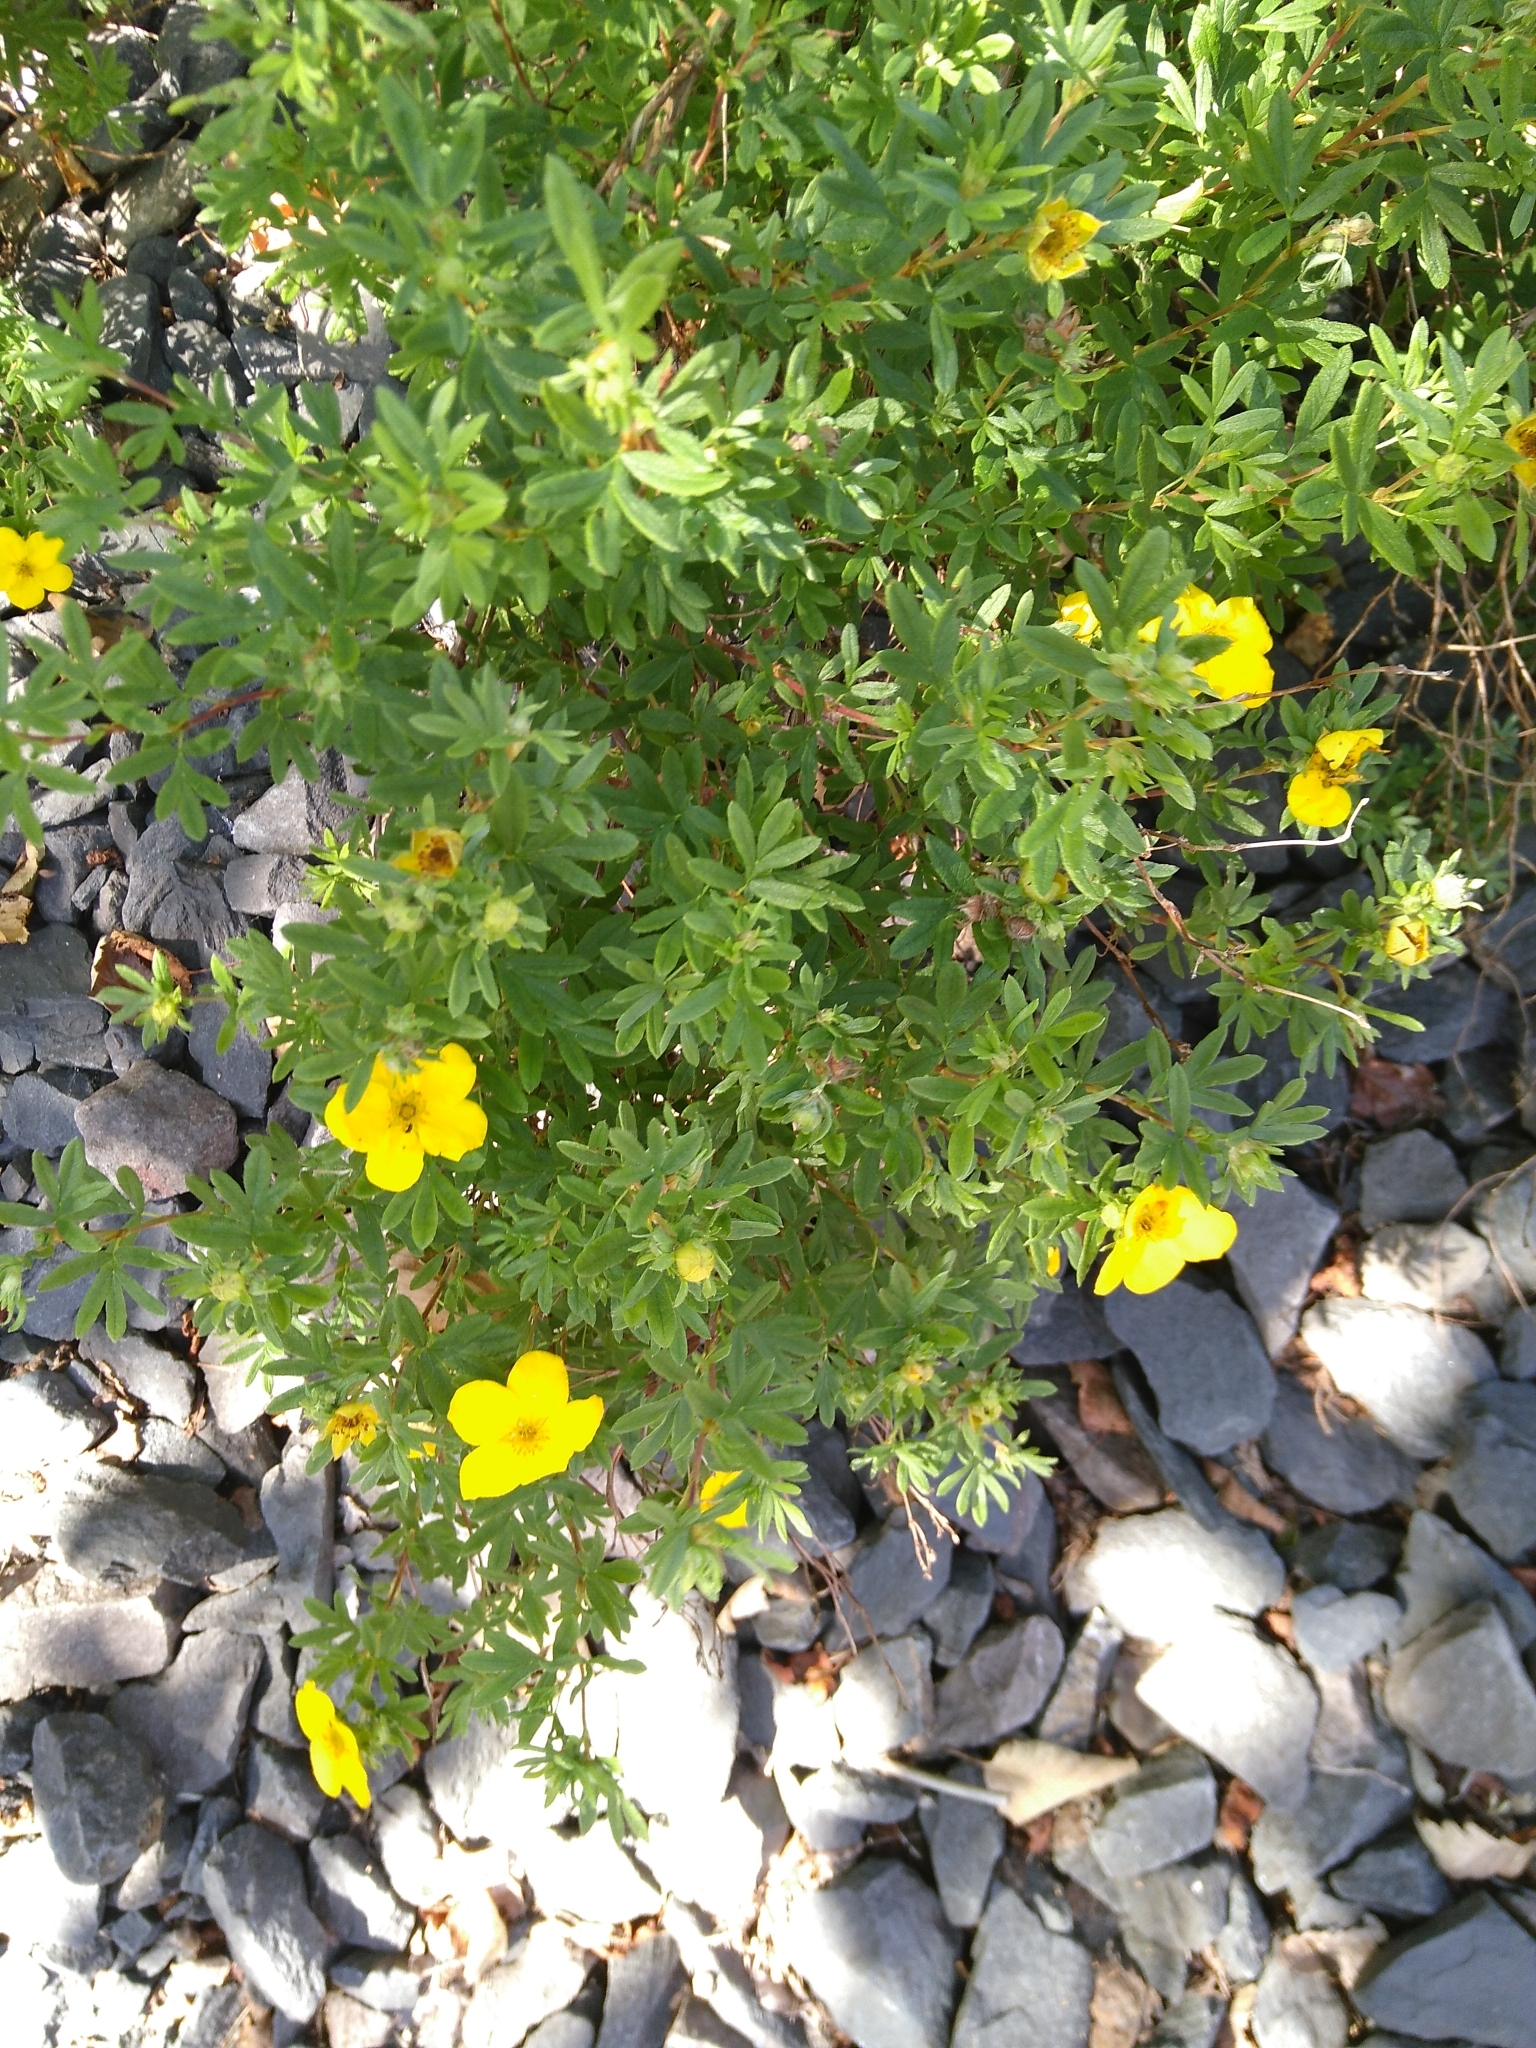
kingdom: Plantae
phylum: Tracheophyta
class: Magnoliopsida
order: Rosales
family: Rosaceae
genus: Dasiphora
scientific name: Dasiphora fruticosa
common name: Shrubby cinquefoil
